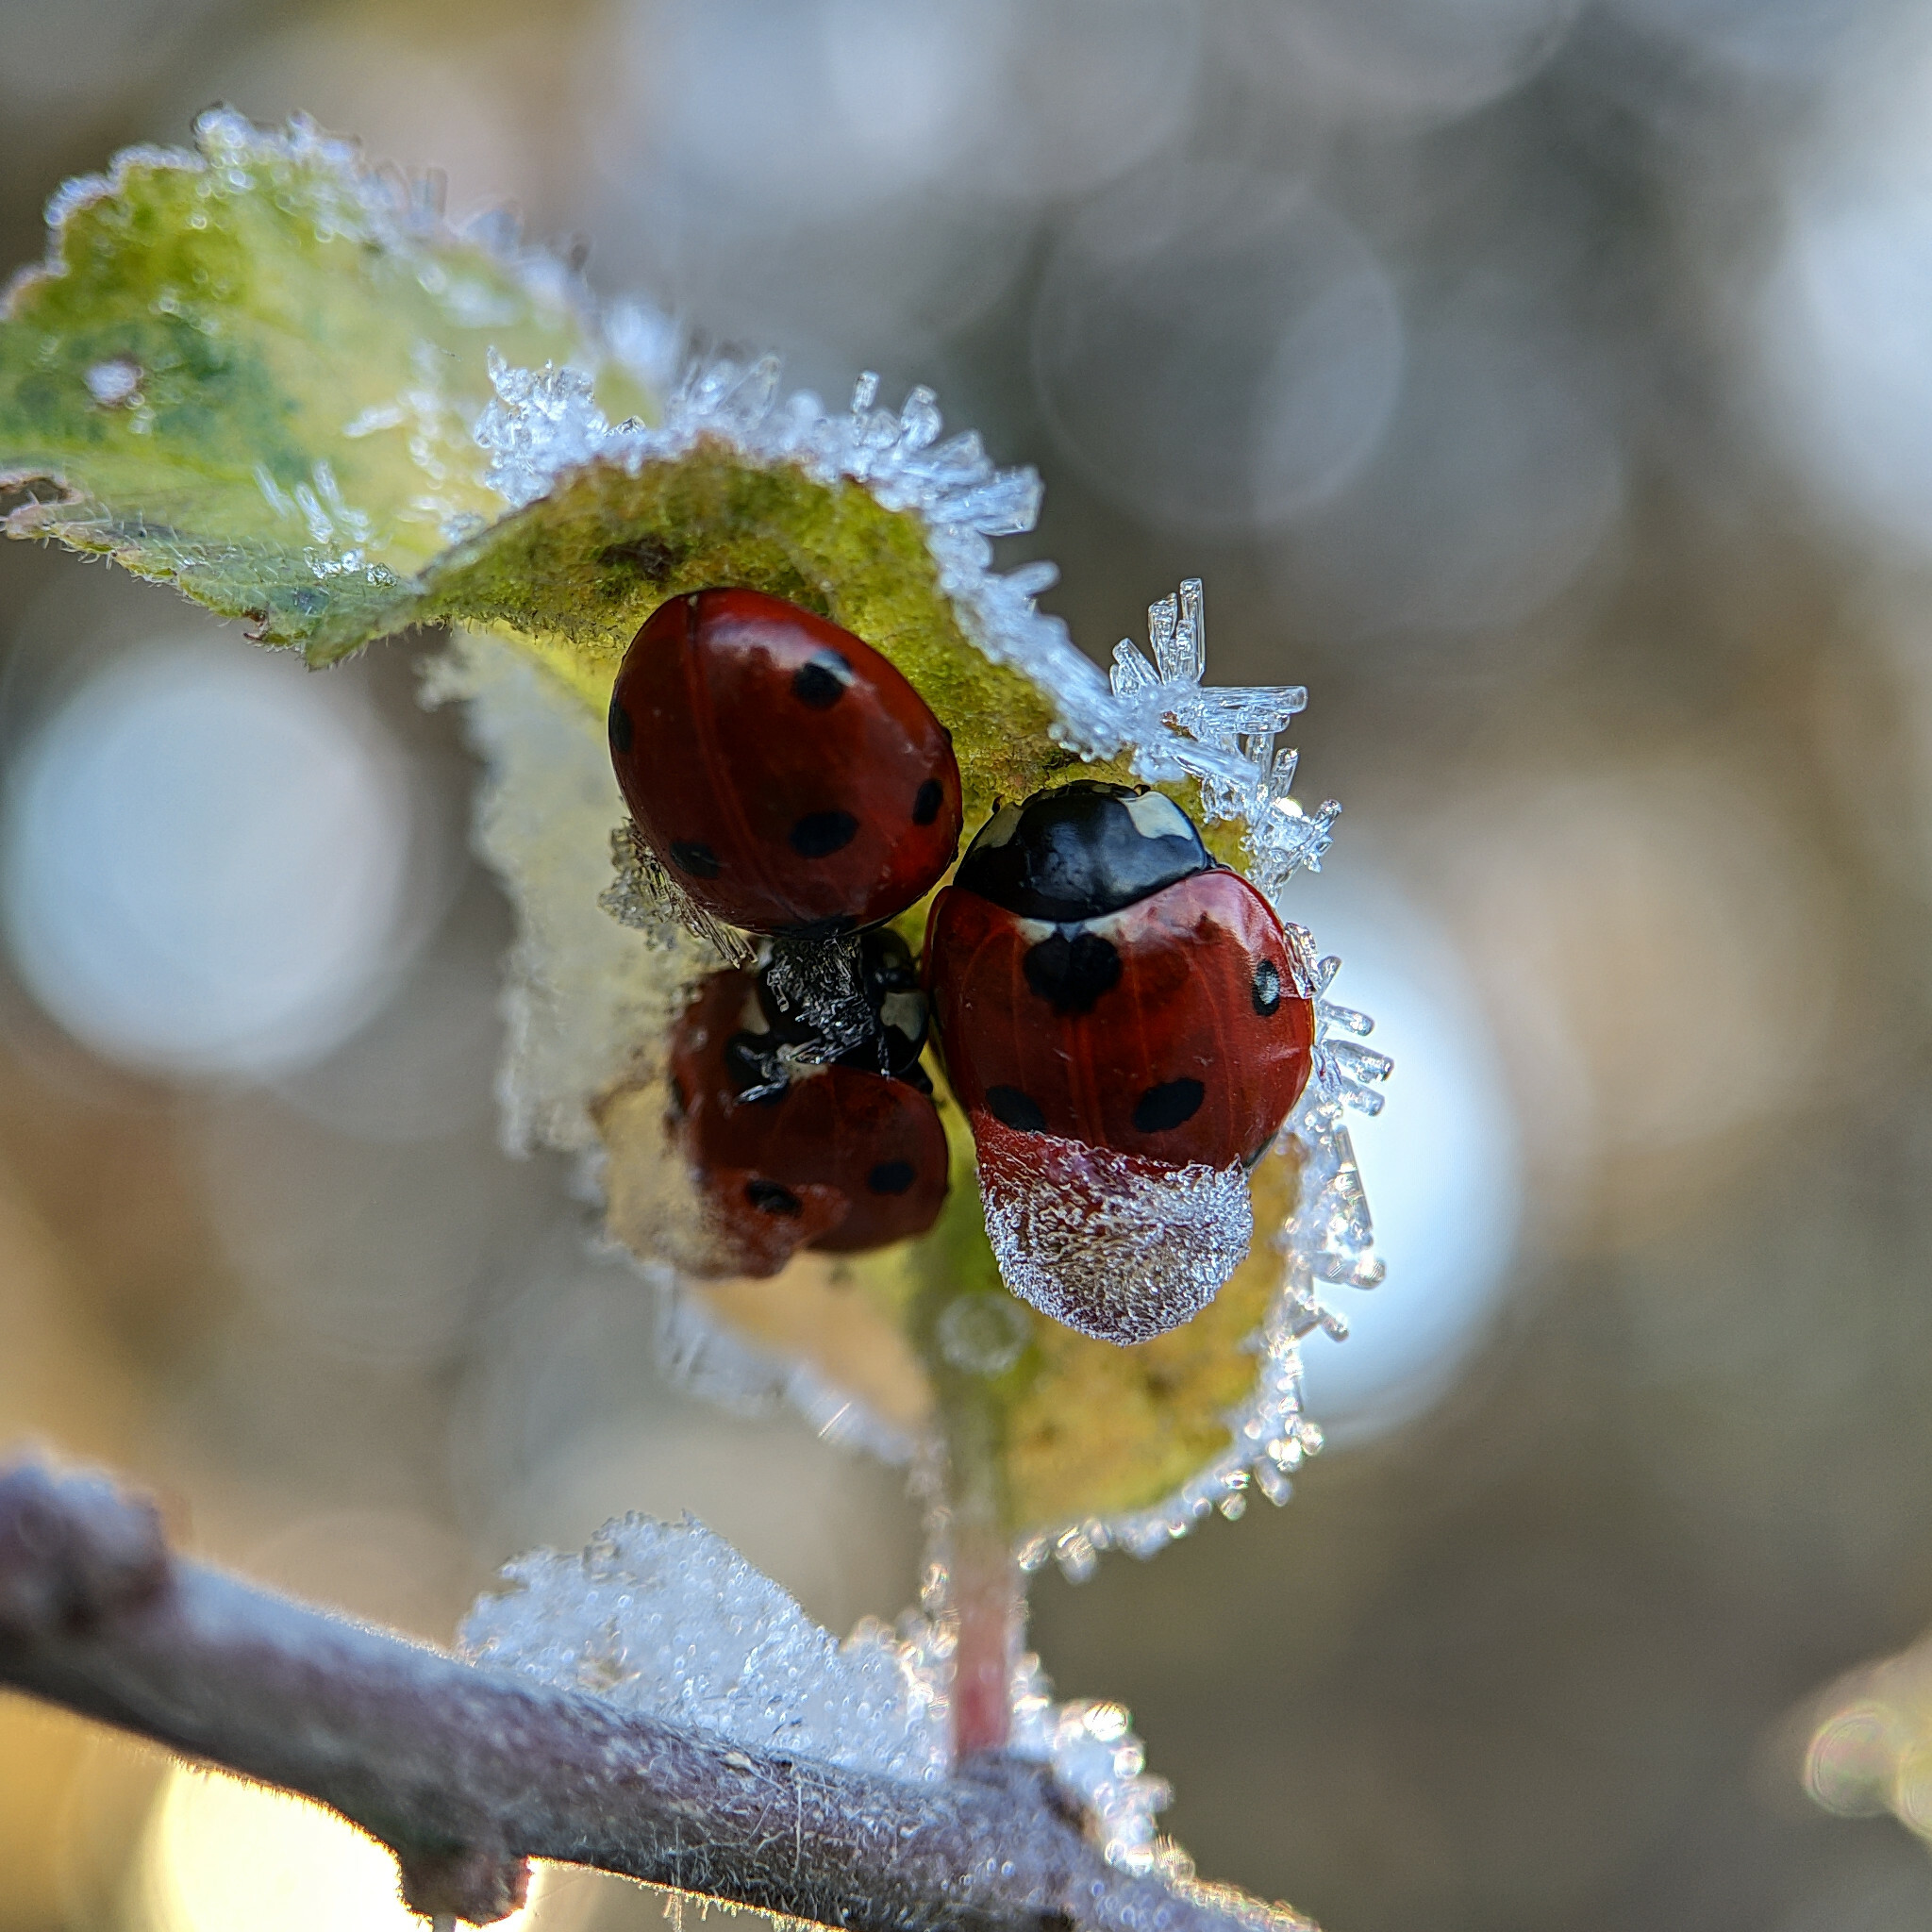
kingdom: Animalia
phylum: Arthropoda
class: Insecta
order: Coleoptera
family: Coccinellidae
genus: Coccinella
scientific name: Coccinella septempunctata
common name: Sevenspotted lady beetle
